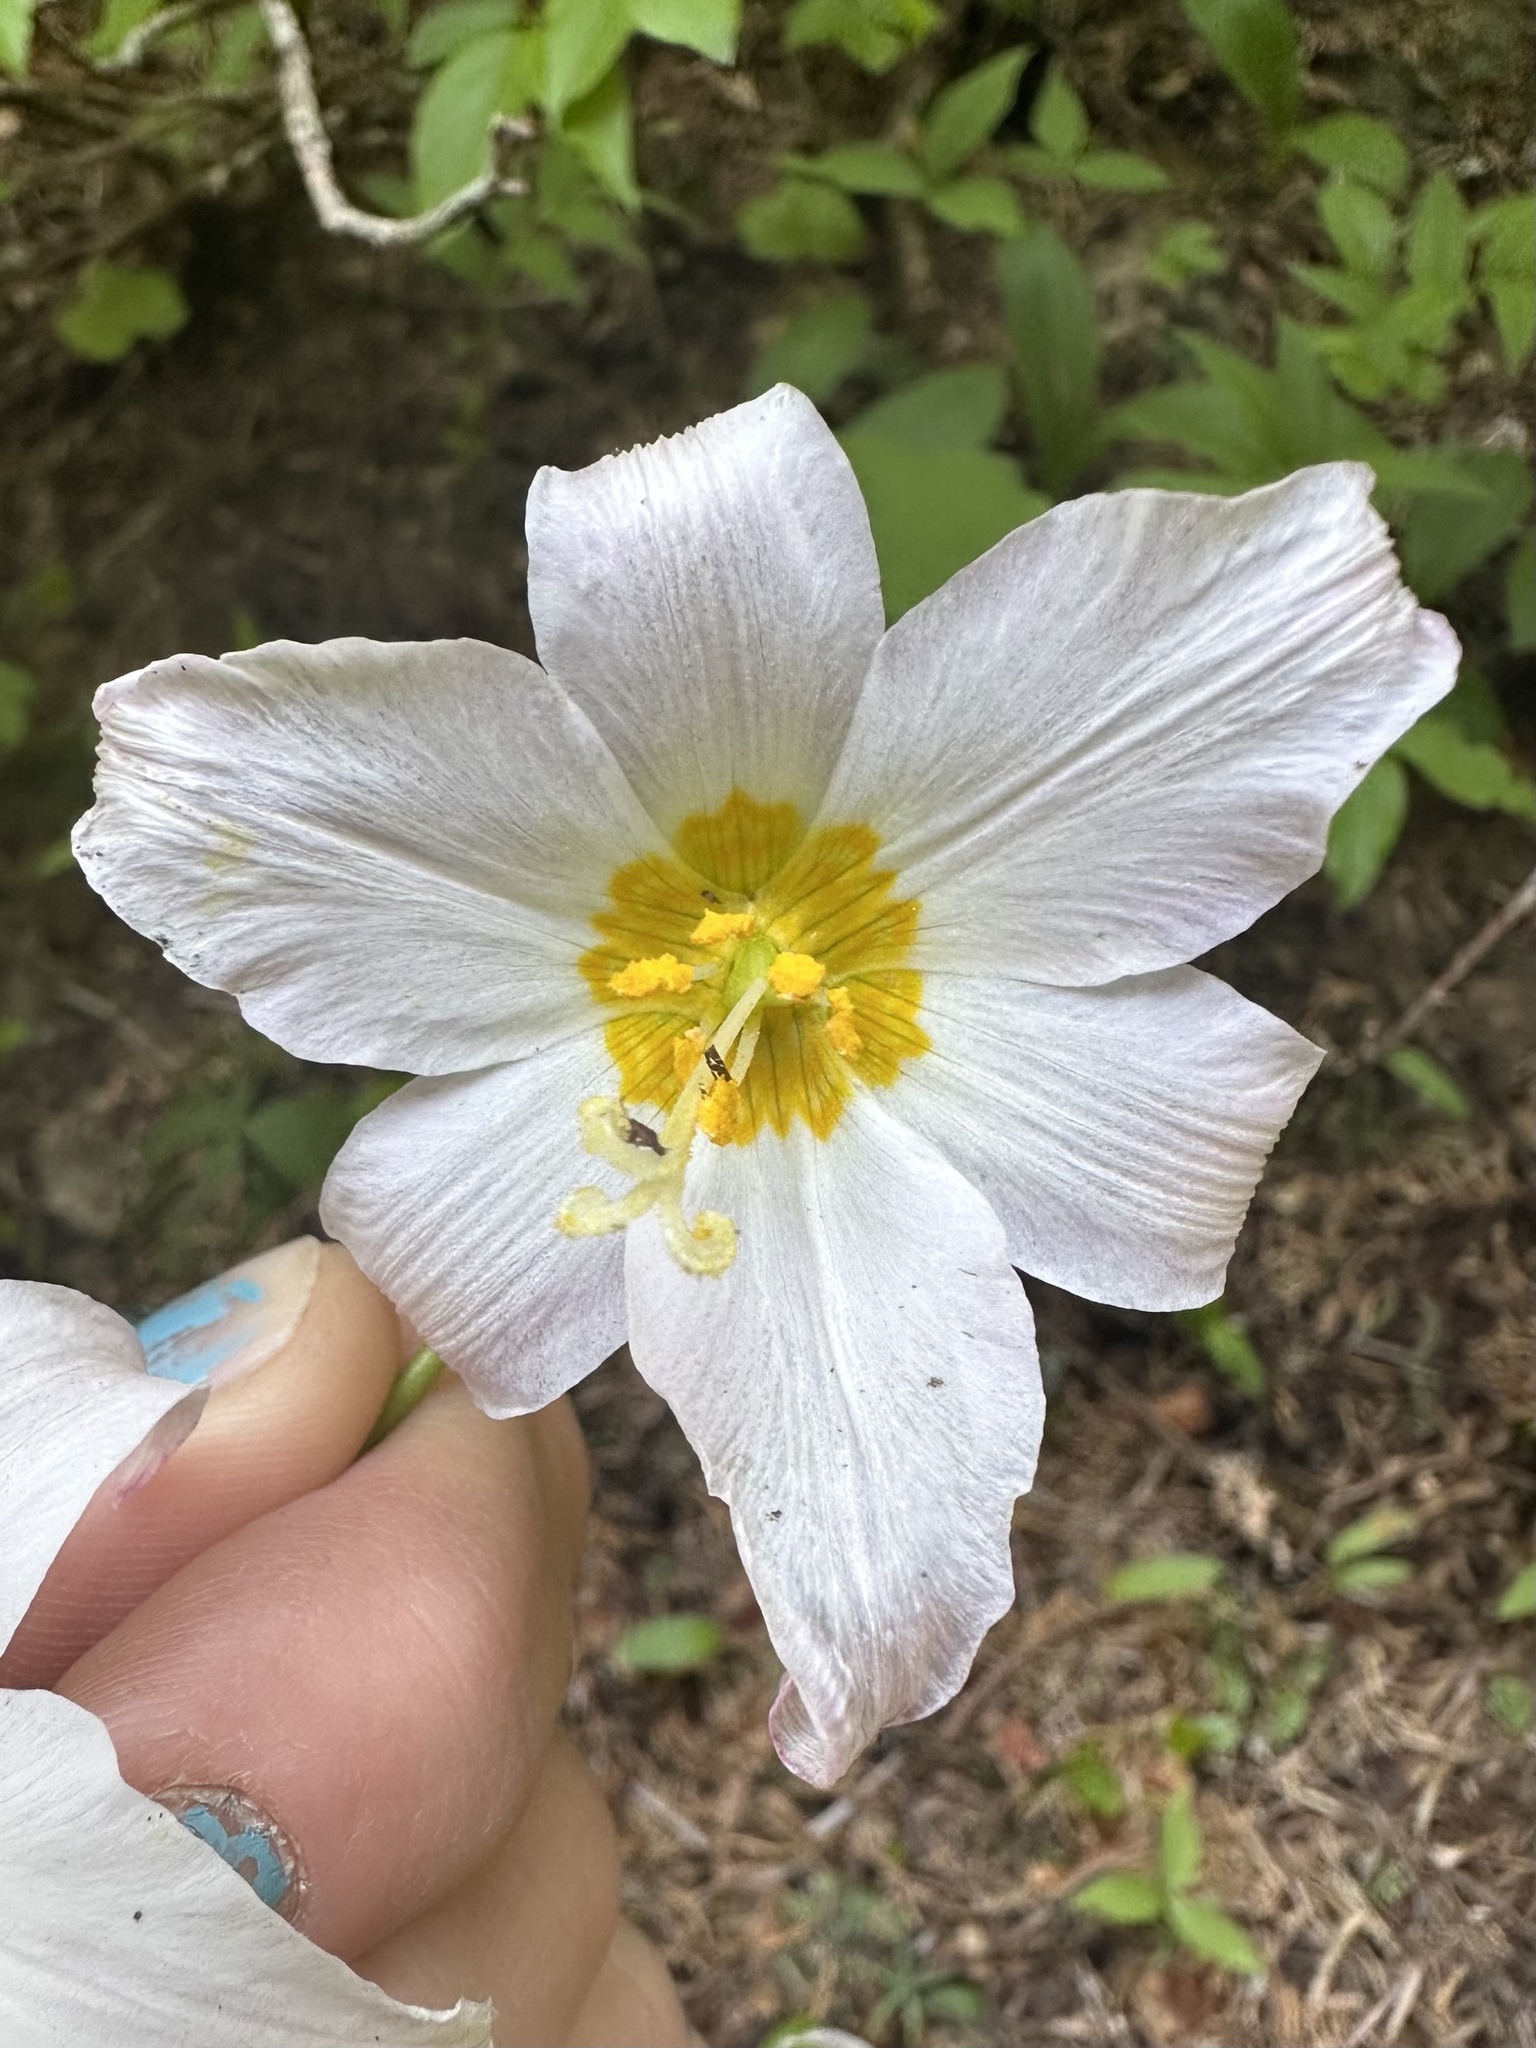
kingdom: Plantae
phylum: Tracheophyta
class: Liliopsida
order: Liliales
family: Liliaceae
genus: Erythronium
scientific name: Erythronium montanum
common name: Avalanche lily
